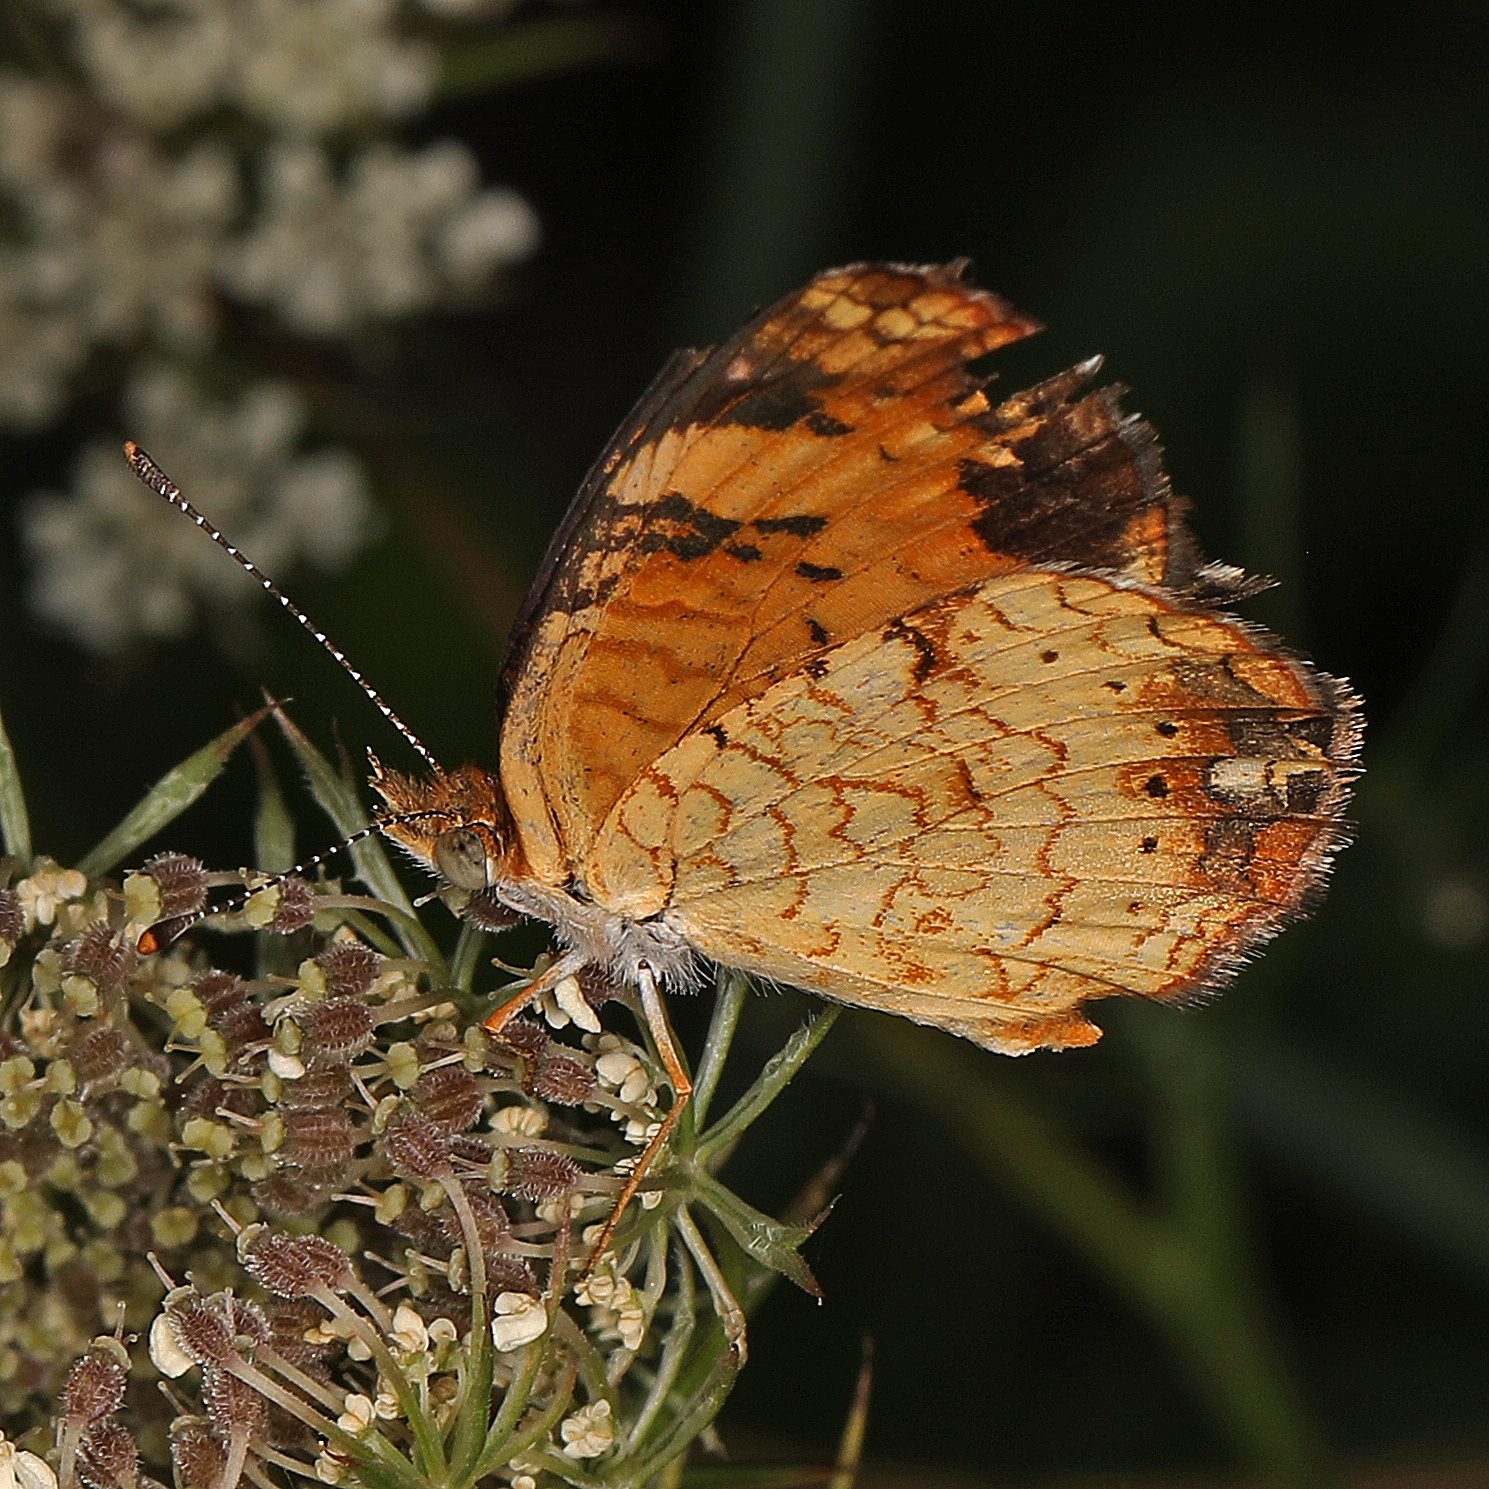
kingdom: Animalia
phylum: Arthropoda
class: Insecta
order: Lepidoptera
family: Nymphalidae
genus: Phyciodes
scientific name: Phyciodes tharos
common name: Pearl crescent
